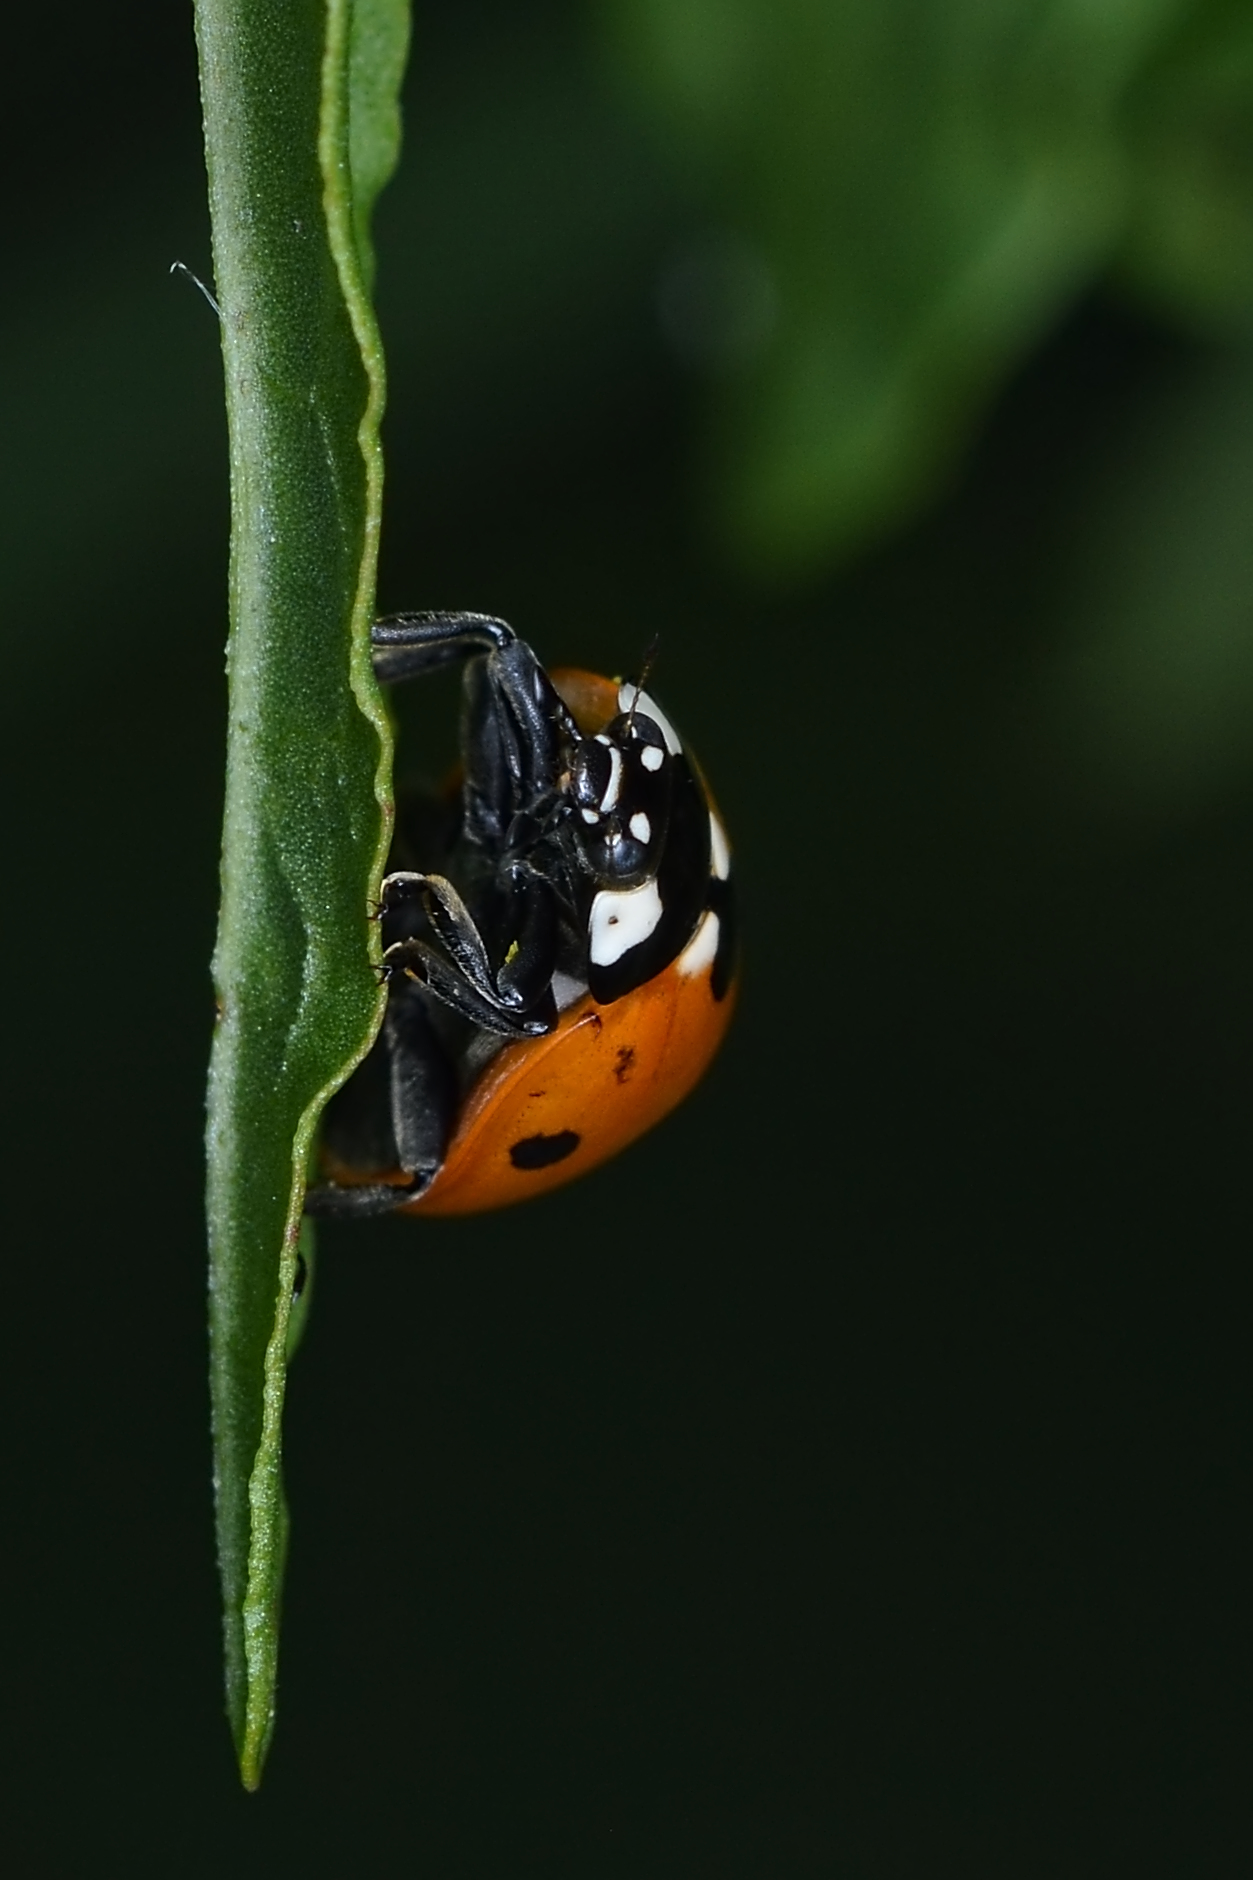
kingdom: Animalia
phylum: Arthropoda
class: Insecta
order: Coleoptera
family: Coccinellidae
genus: Coccinella
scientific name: Coccinella septempunctata
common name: Sevenspotted lady beetle
